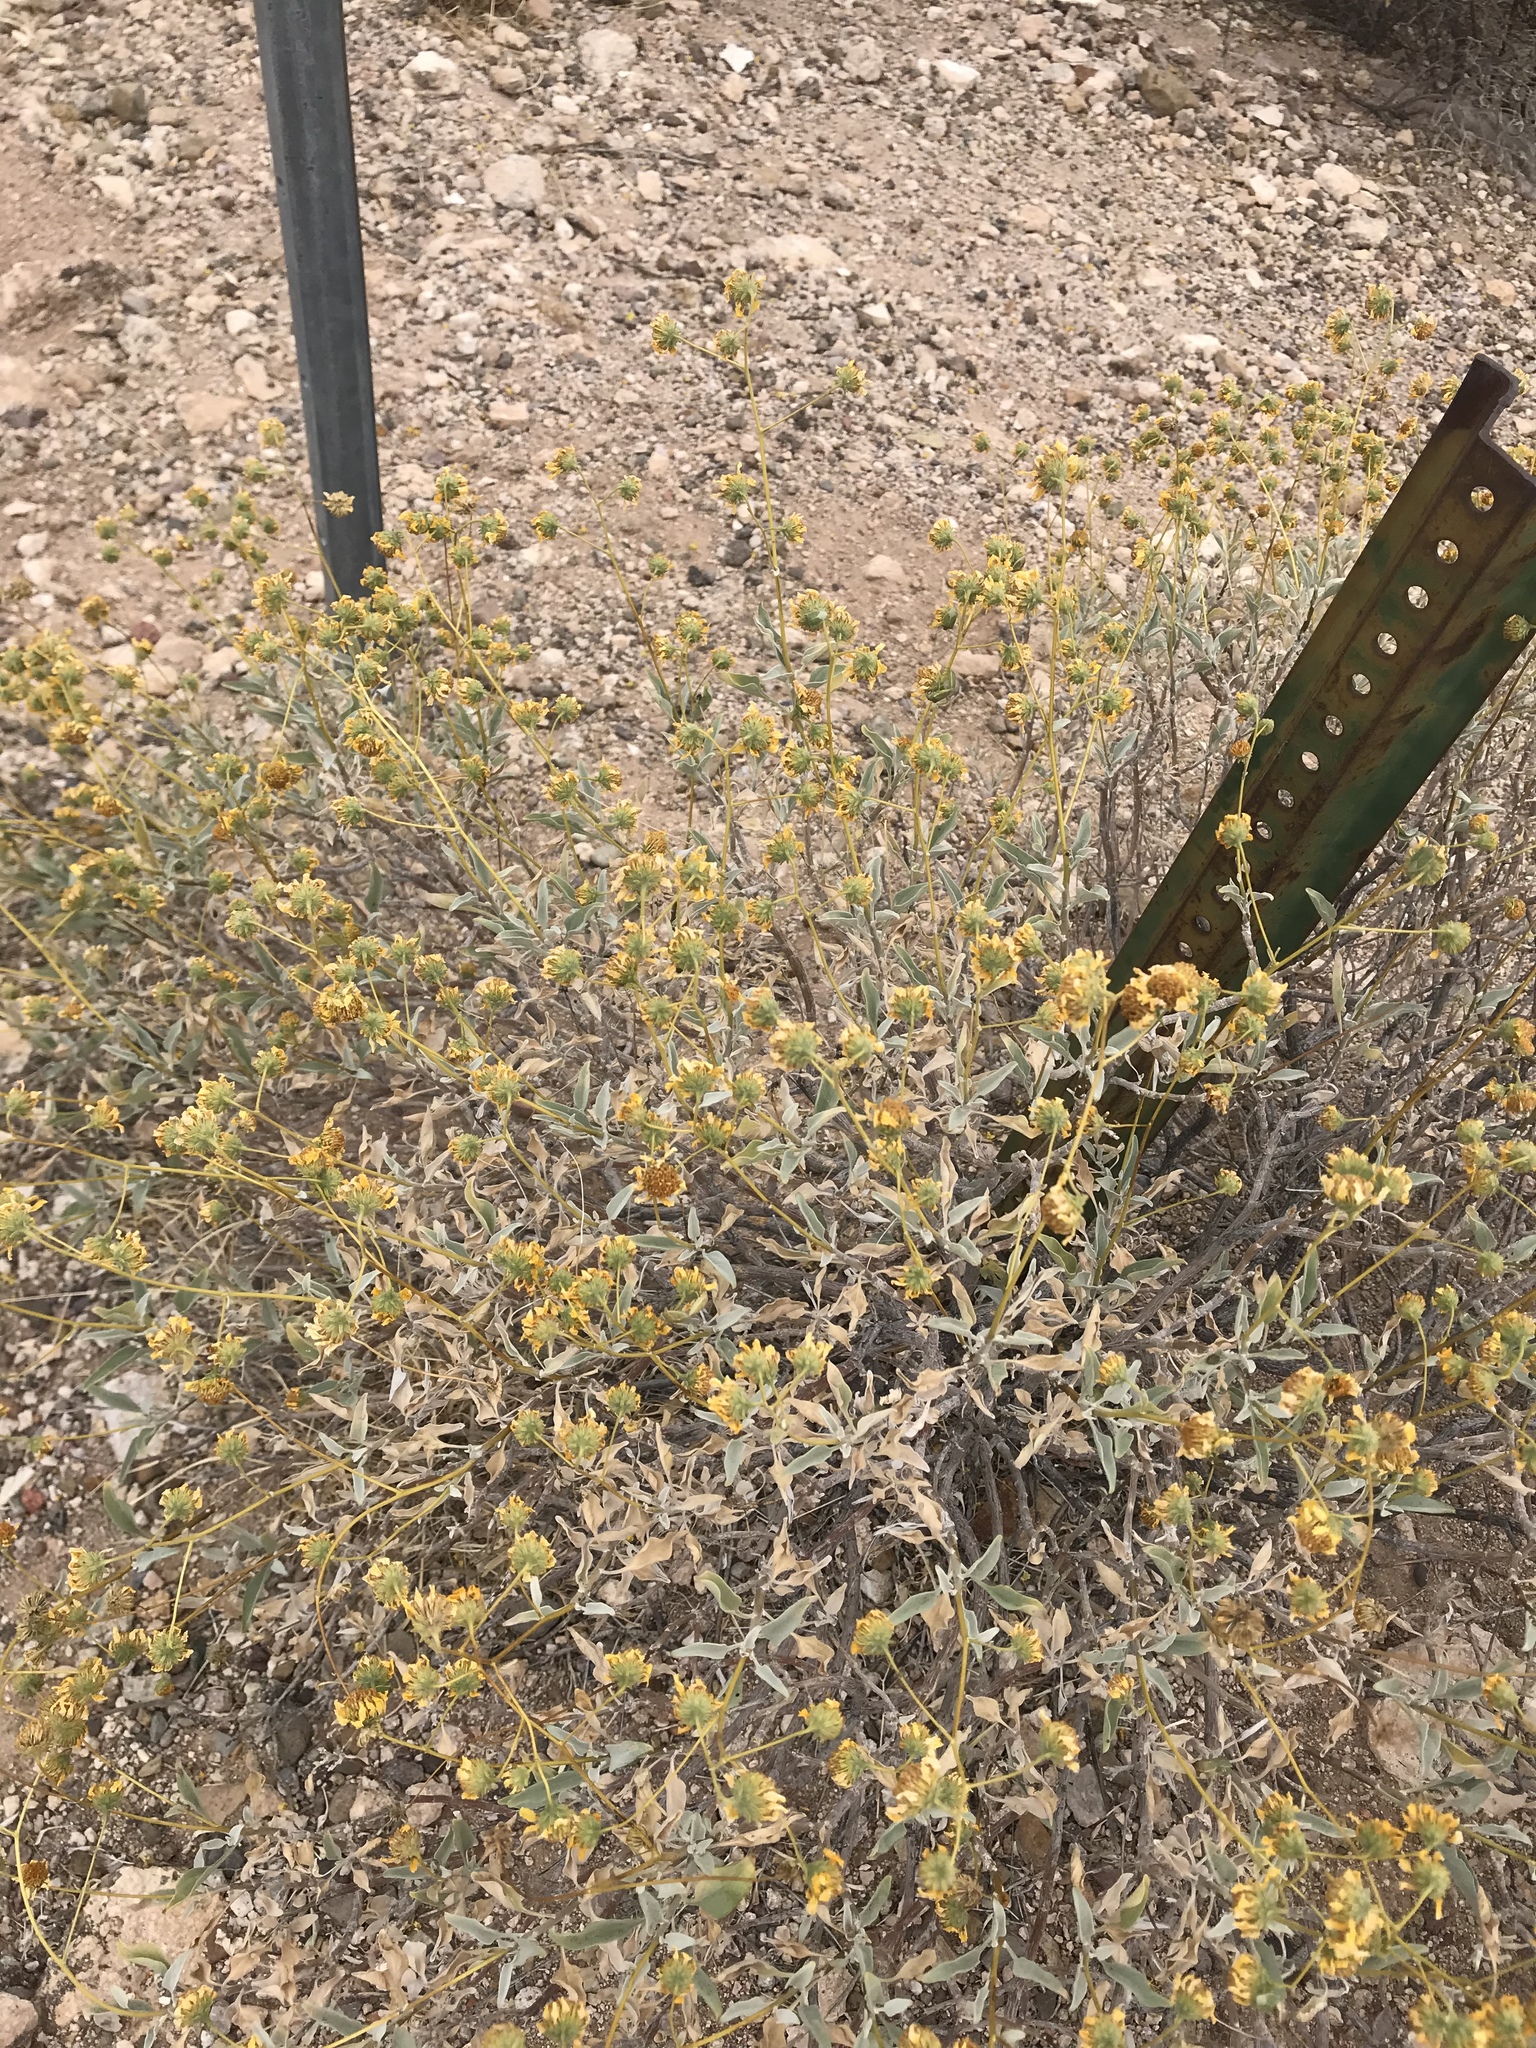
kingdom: Plantae
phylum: Tracheophyta
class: Magnoliopsida
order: Asterales
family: Asteraceae
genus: Encelia
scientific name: Encelia farinosa
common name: Brittlebush
